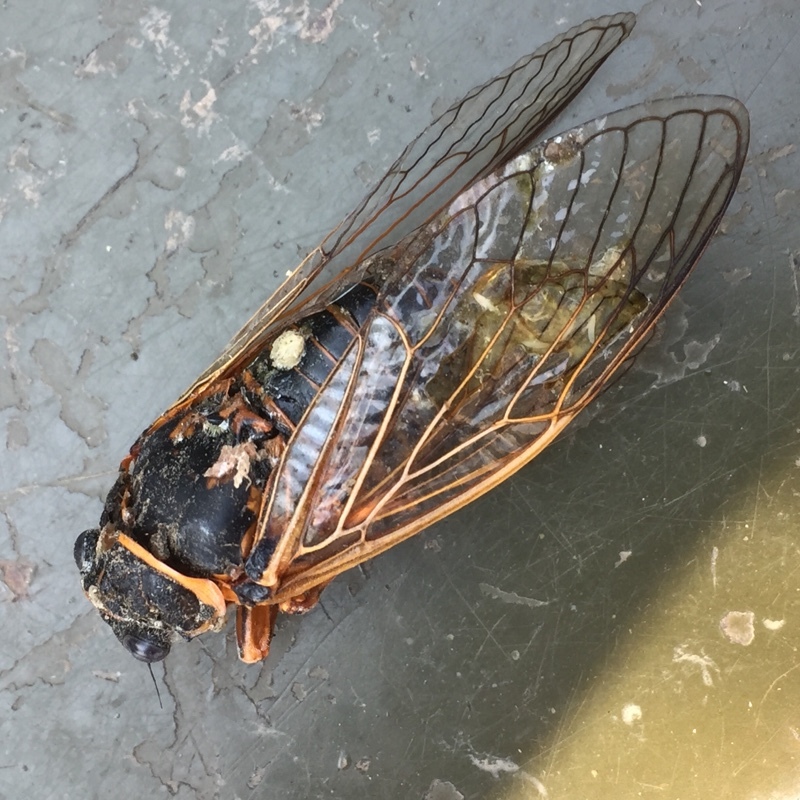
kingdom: Animalia
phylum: Arthropoda
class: Insecta
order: Hemiptera
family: Cicadidae
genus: Tibicina
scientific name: Tibicina steveni
